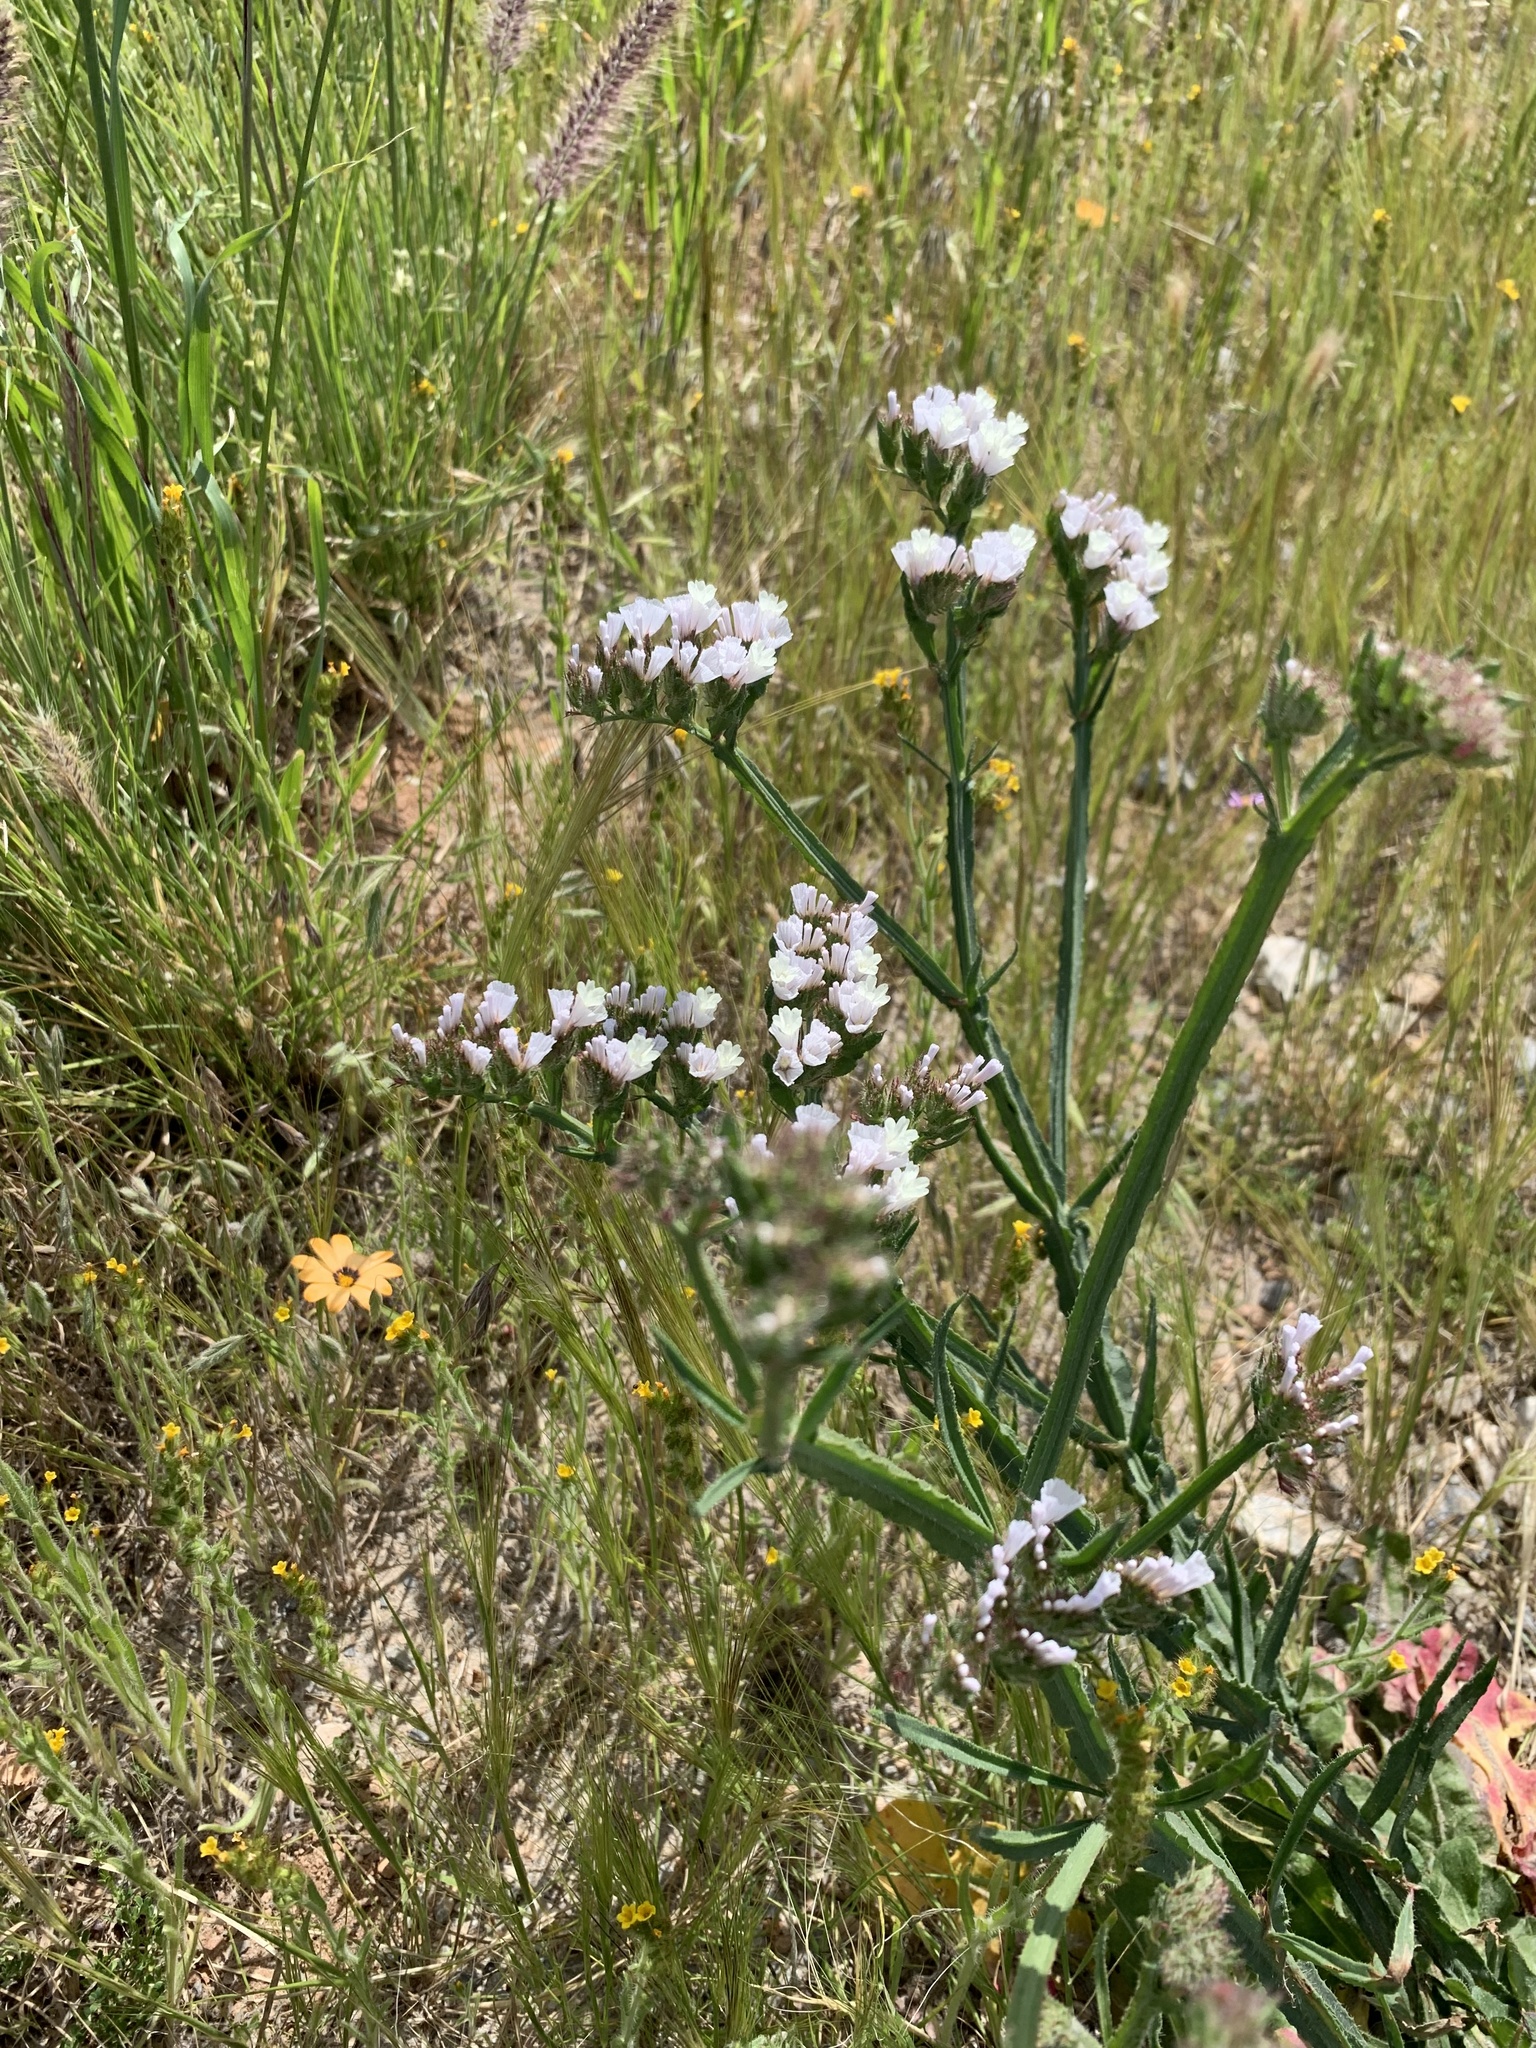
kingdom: Plantae
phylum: Tracheophyta
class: Magnoliopsida
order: Caryophyllales
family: Plumbaginaceae
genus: Limonium
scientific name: Limonium sinuatum
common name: Statice
